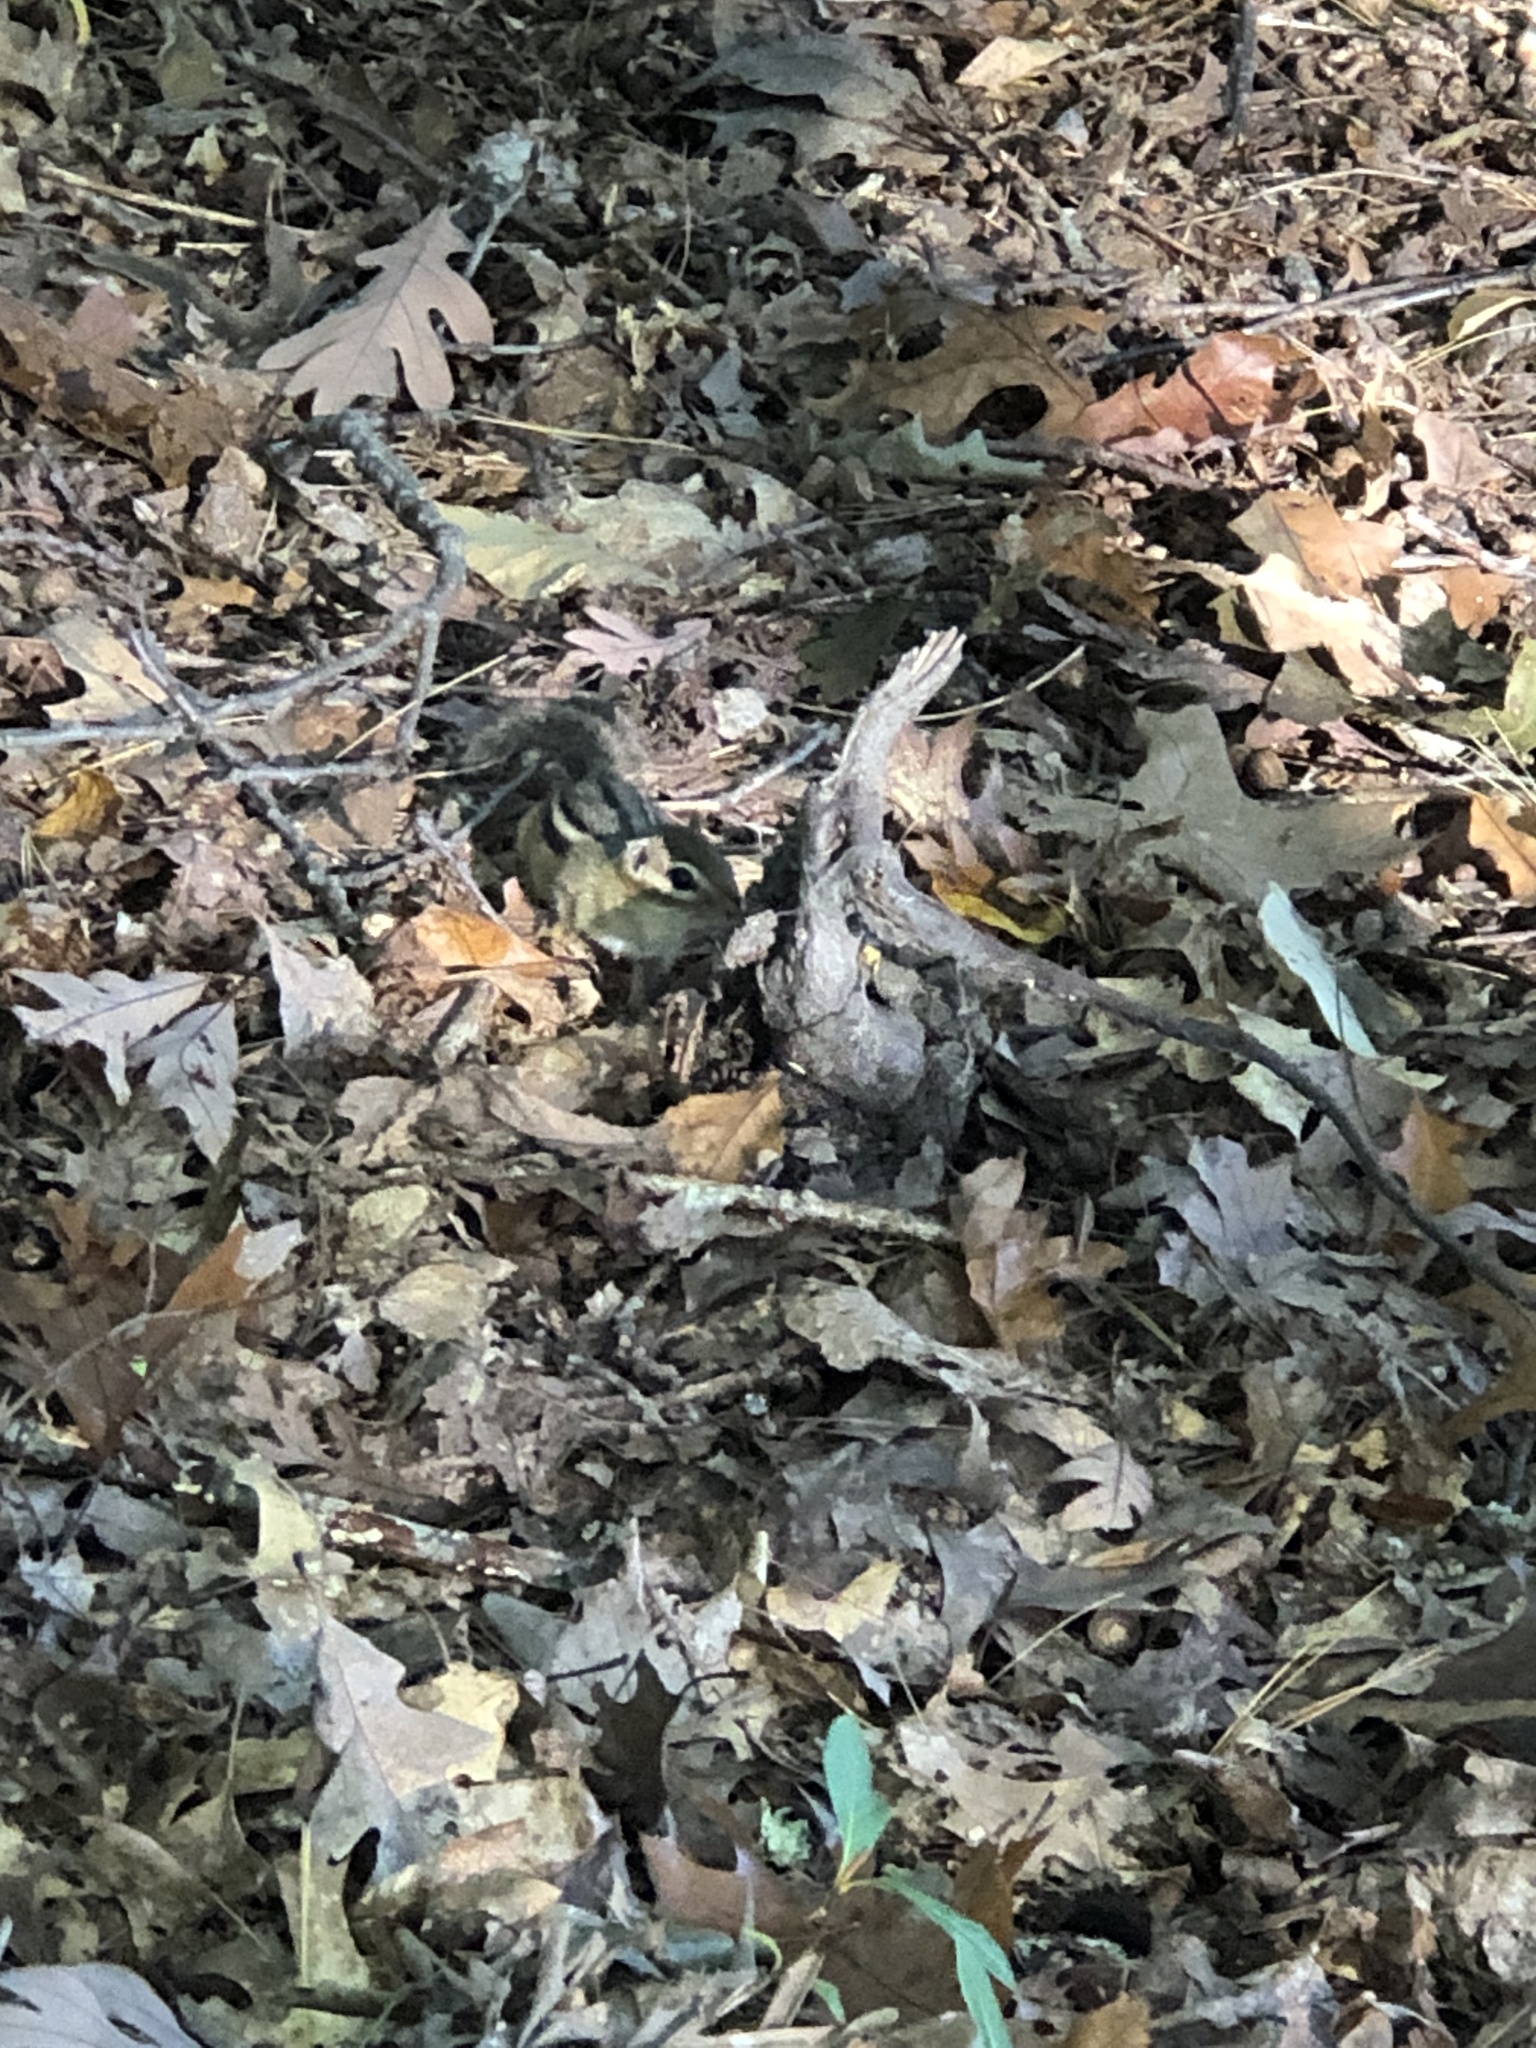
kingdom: Animalia
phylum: Chordata
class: Mammalia
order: Rodentia
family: Sciuridae
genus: Tamias
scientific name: Tamias striatus
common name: Eastern chipmunk
